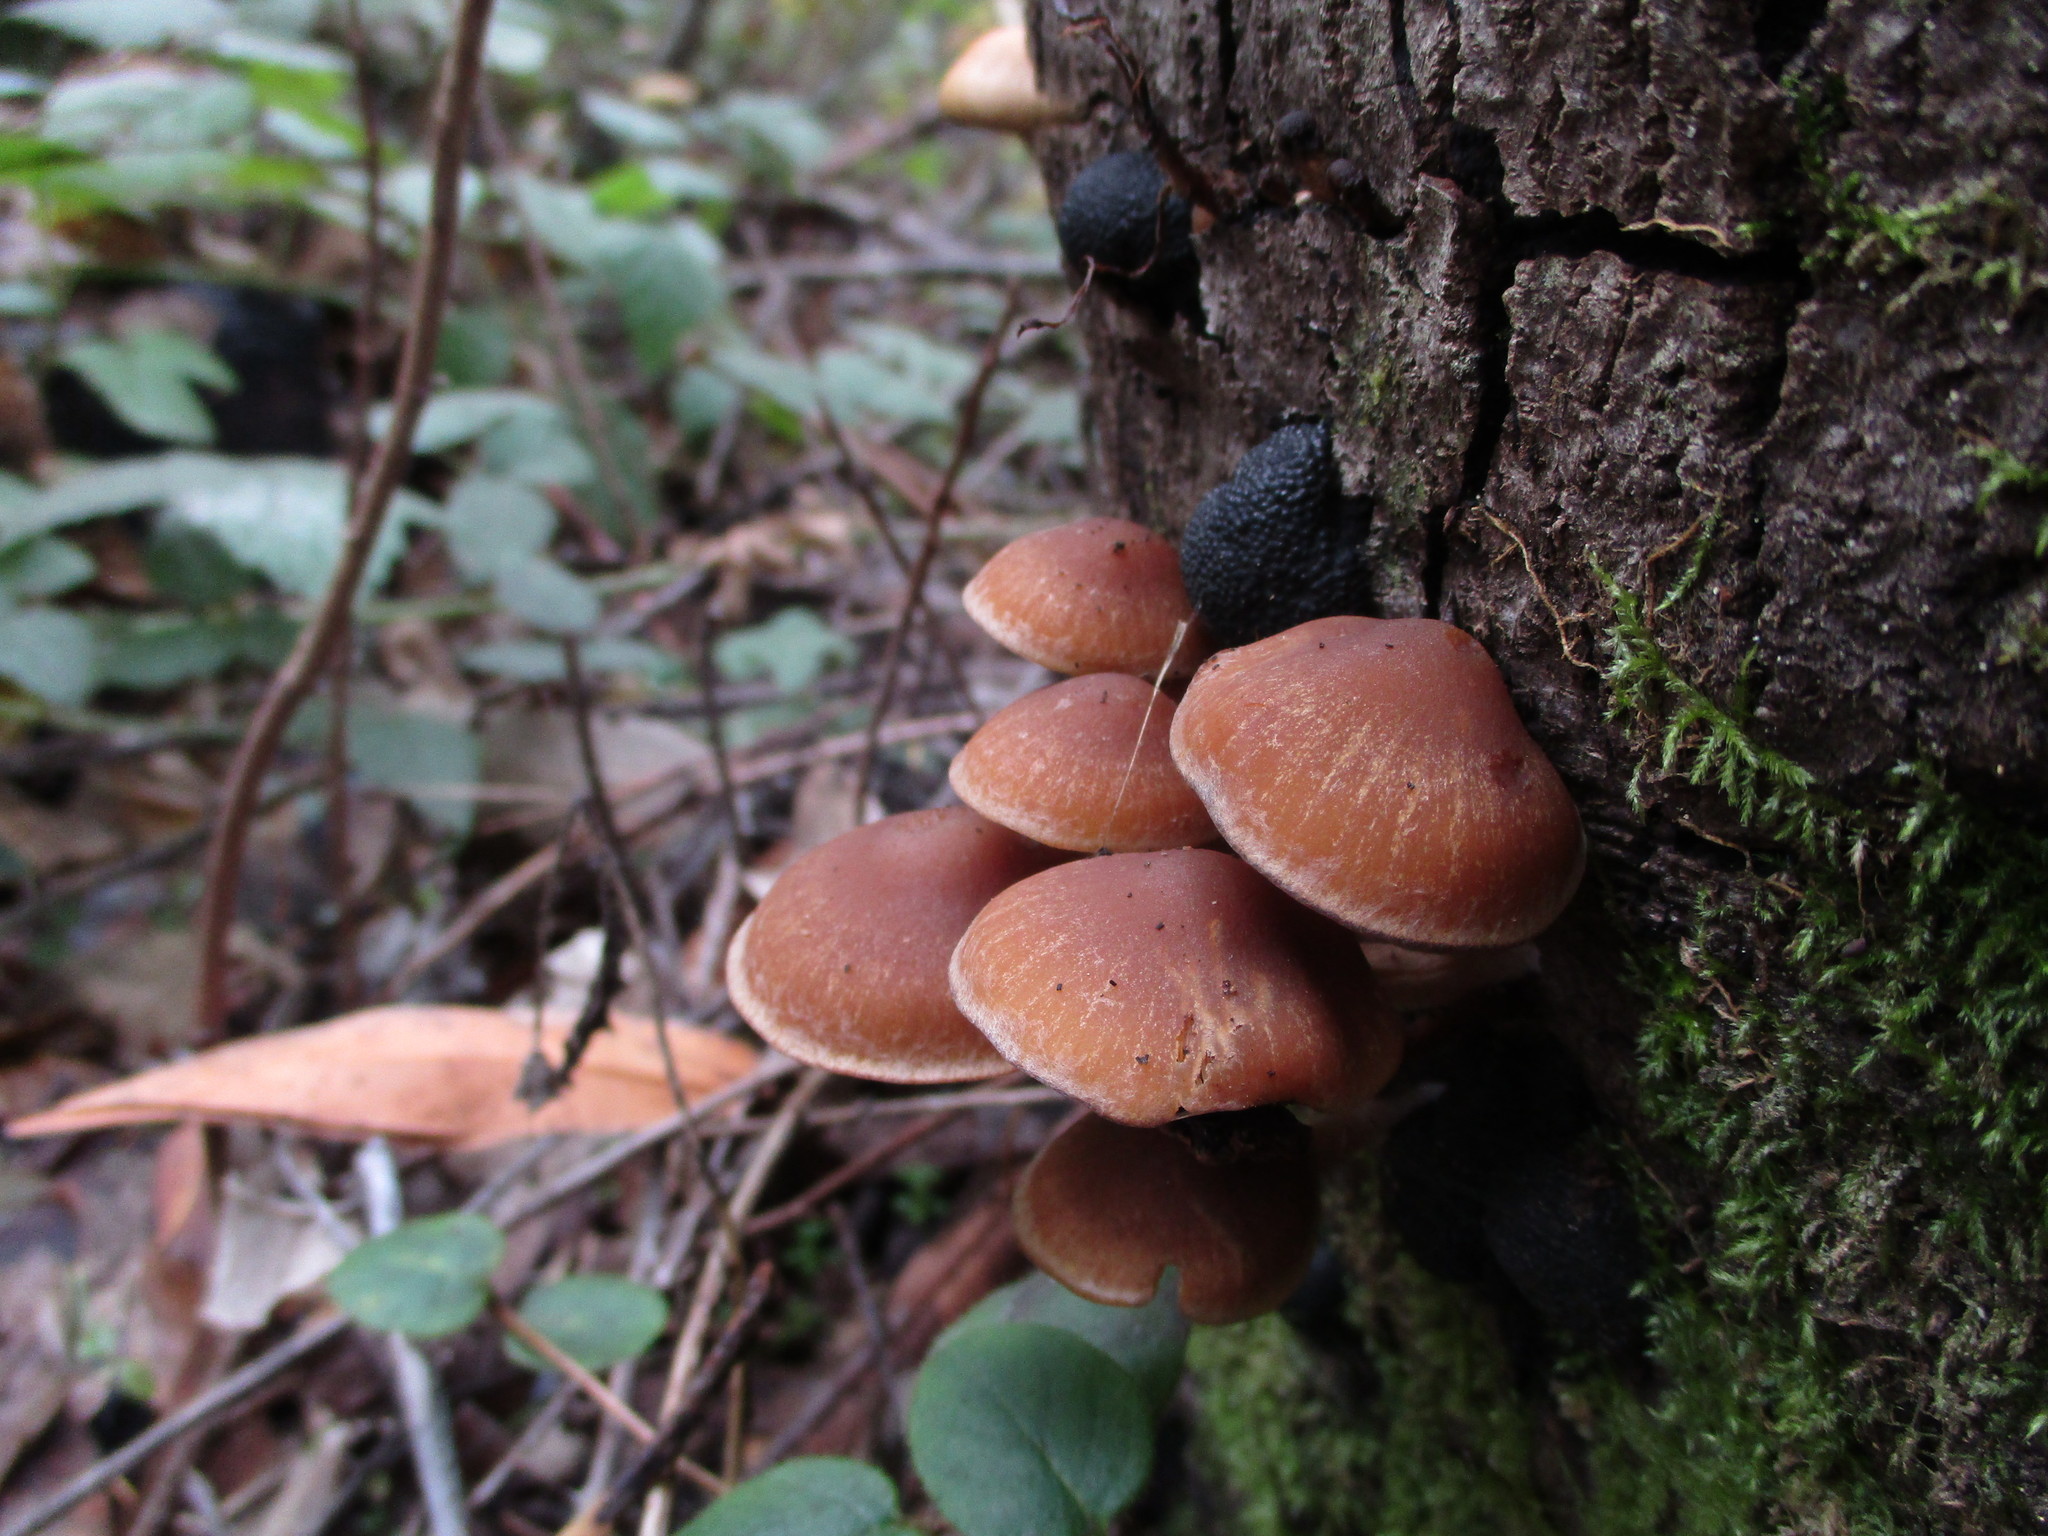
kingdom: Fungi
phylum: Basidiomycota
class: Agaricomycetes
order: Agaricales
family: Psathyrellaceae
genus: Psathyrella
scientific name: Psathyrella piluliformis
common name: Common stump brittlestem
